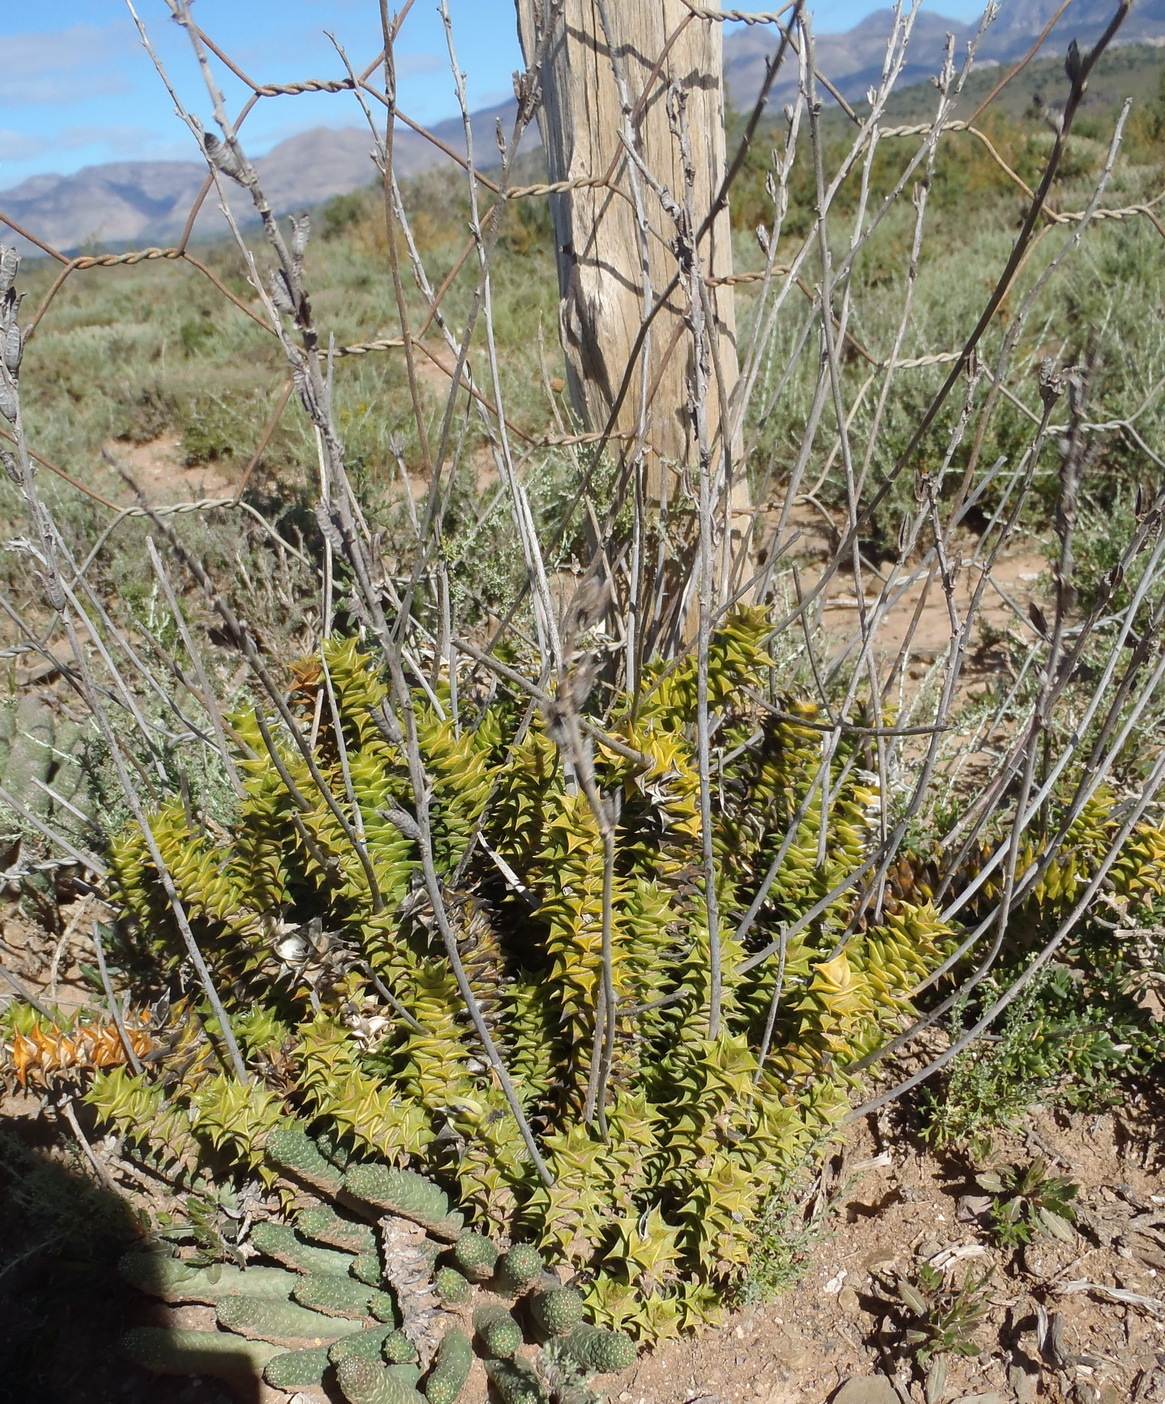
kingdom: Plantae
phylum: Tracheophyta
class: Liliopsida
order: Asparagales
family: Asphodelaceae
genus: Astroloba
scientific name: Astroloba foliolosa
